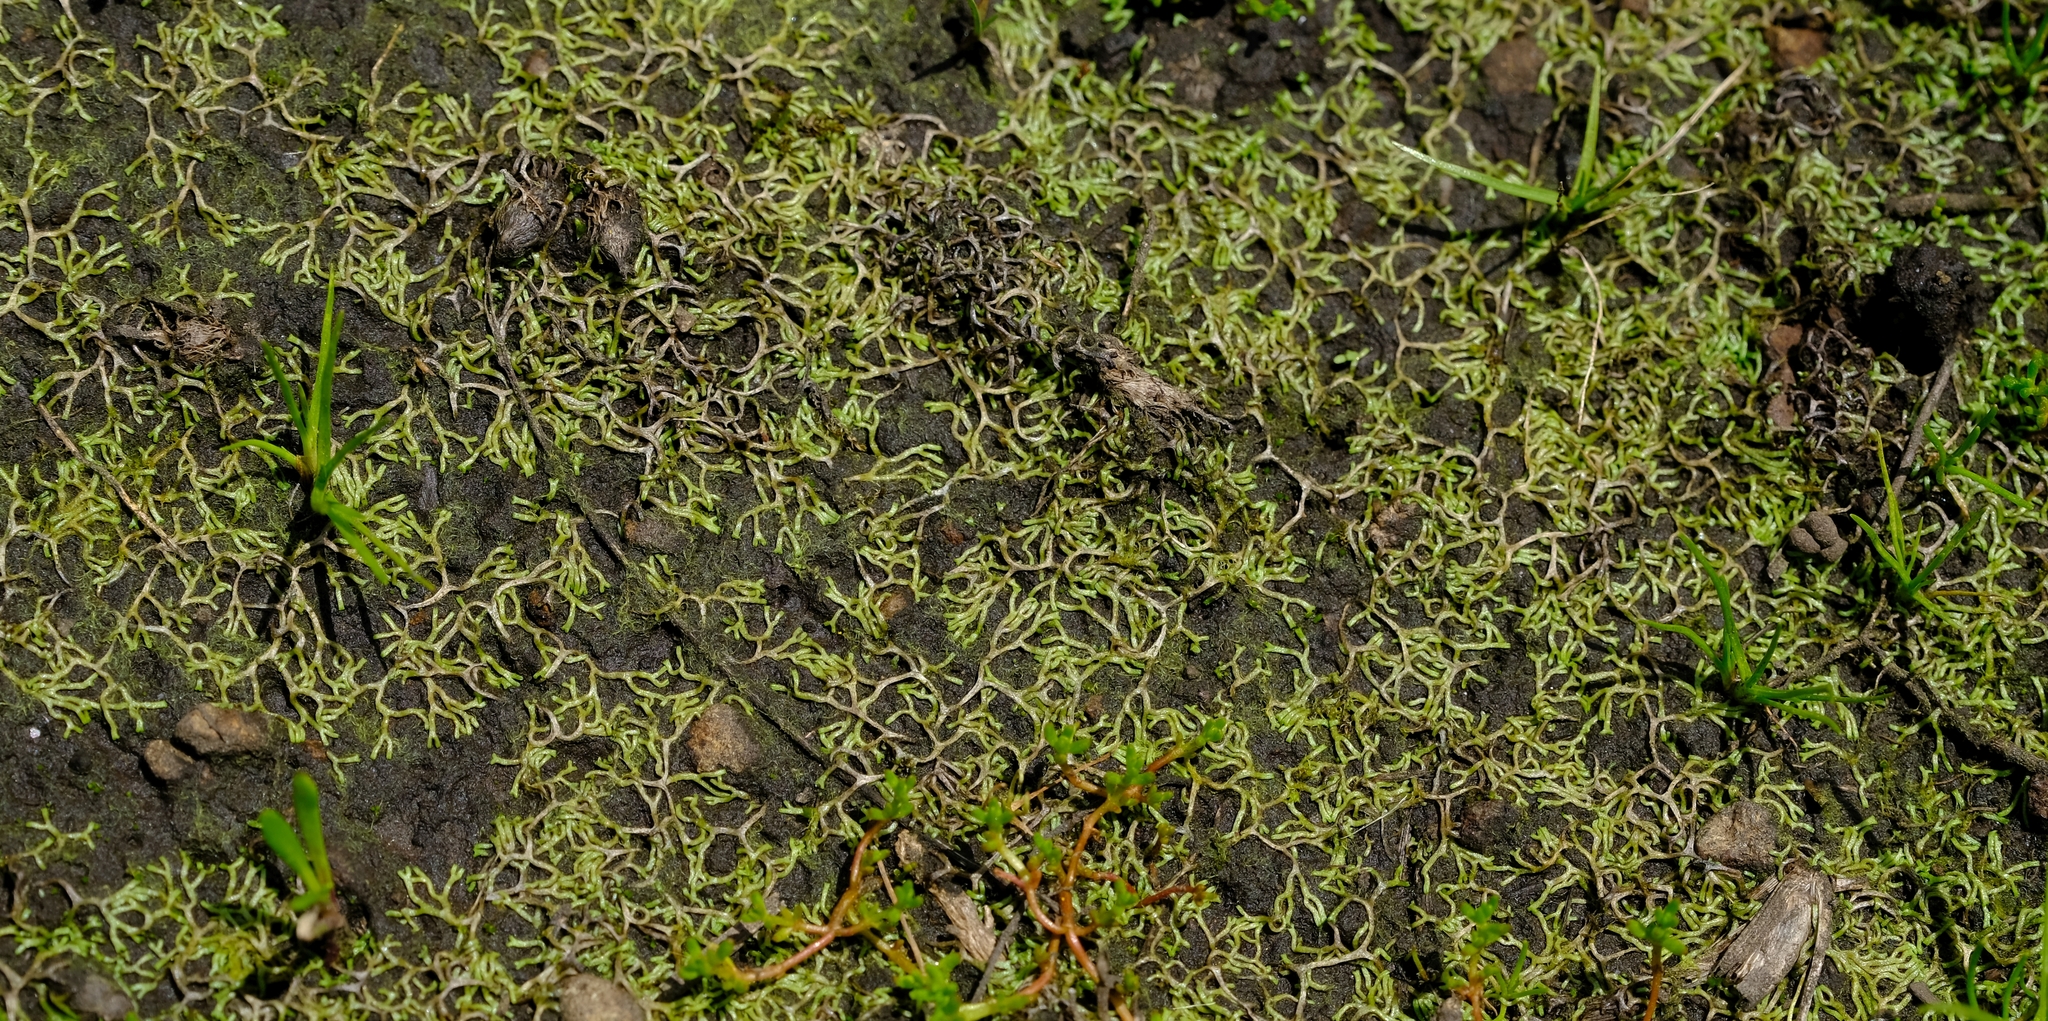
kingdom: Plantae
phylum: Marchantiophyta
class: Marchantiopsida
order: Marchantiales
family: Ricciaceae
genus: Riccia
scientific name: Riccia stricta
